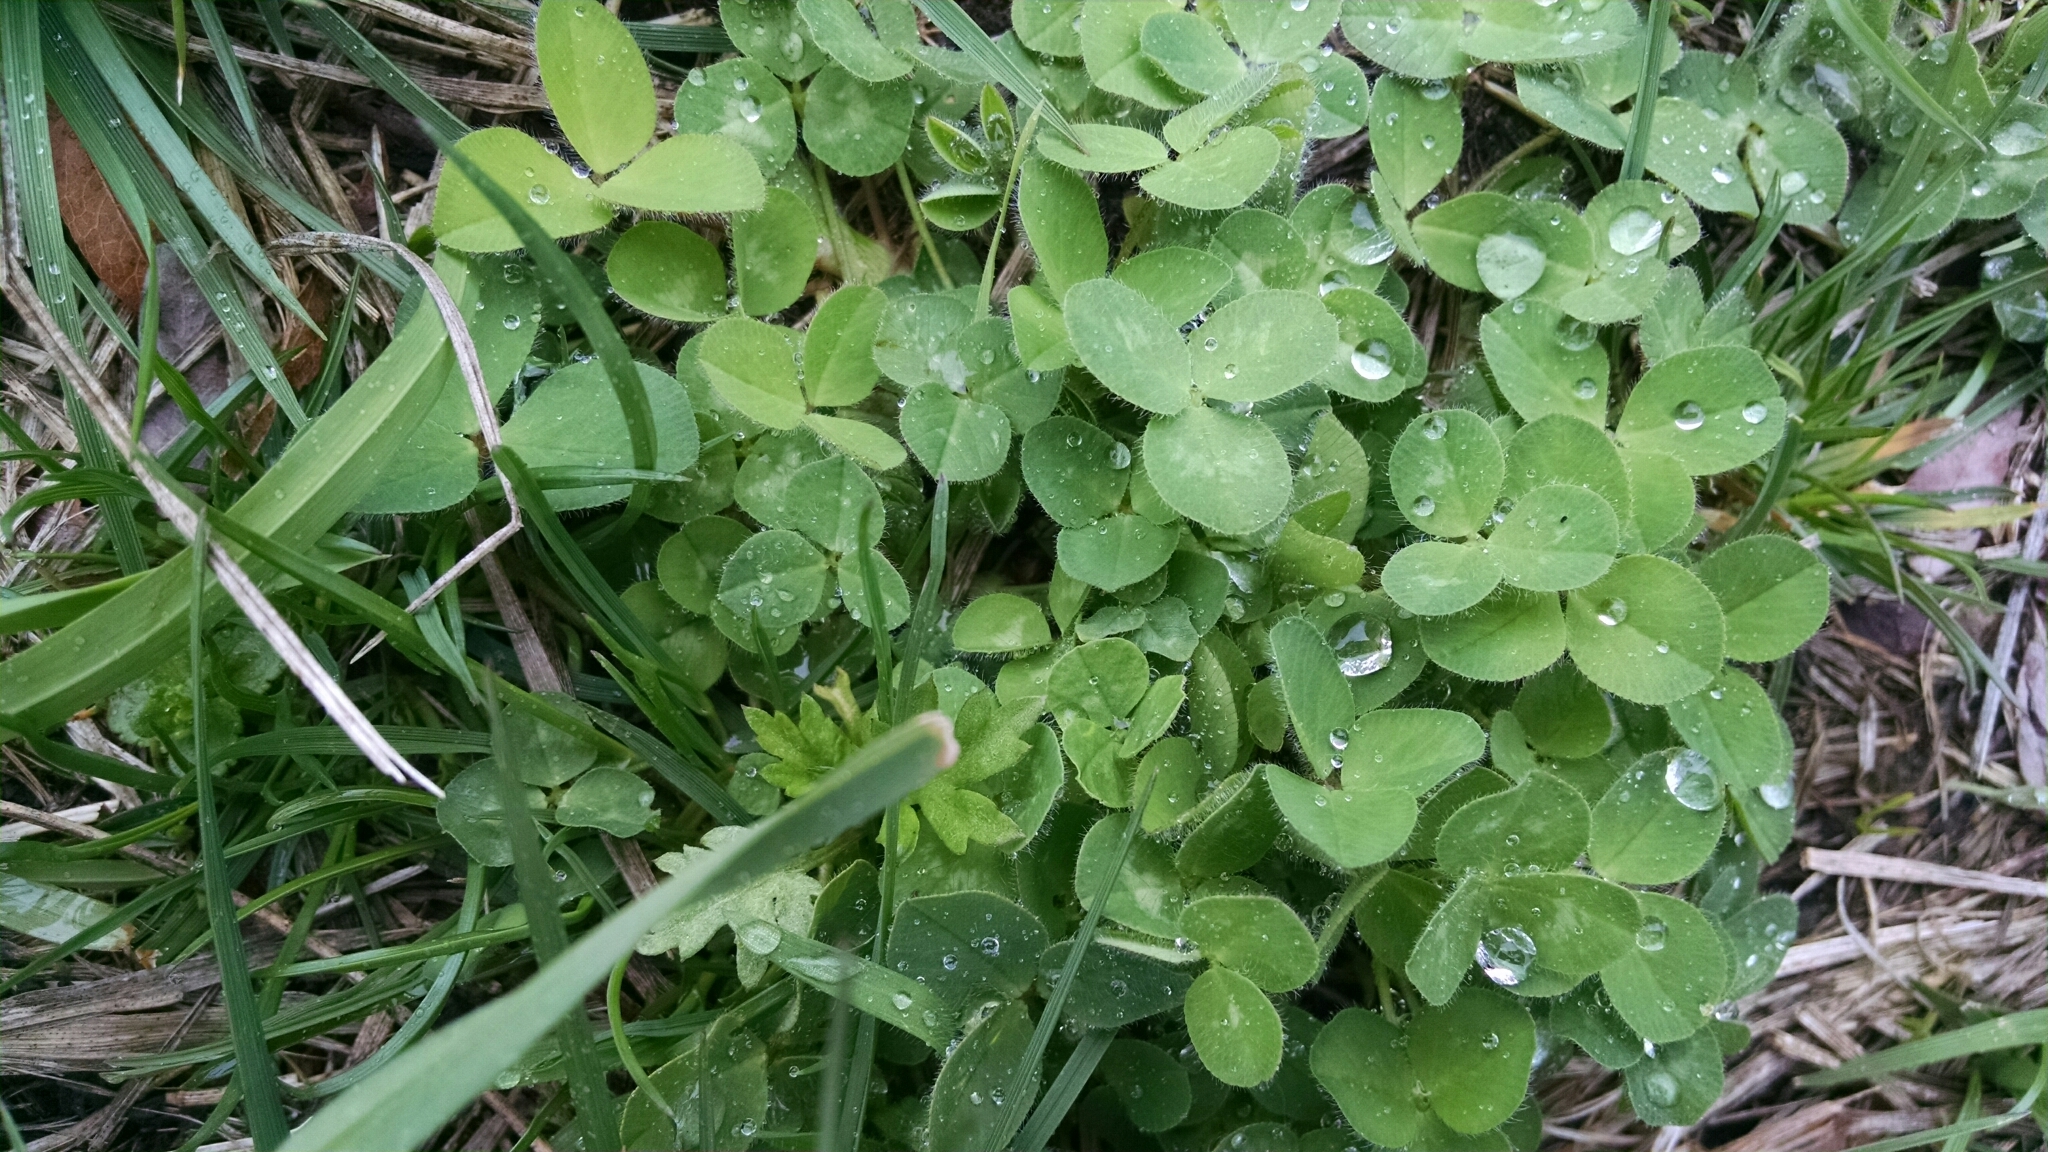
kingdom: Plantae
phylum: Tracheophyta
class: Magnoliopsida
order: Fabales
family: Fabaceae
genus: Trifolium
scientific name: Trifolium repens
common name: White clover
